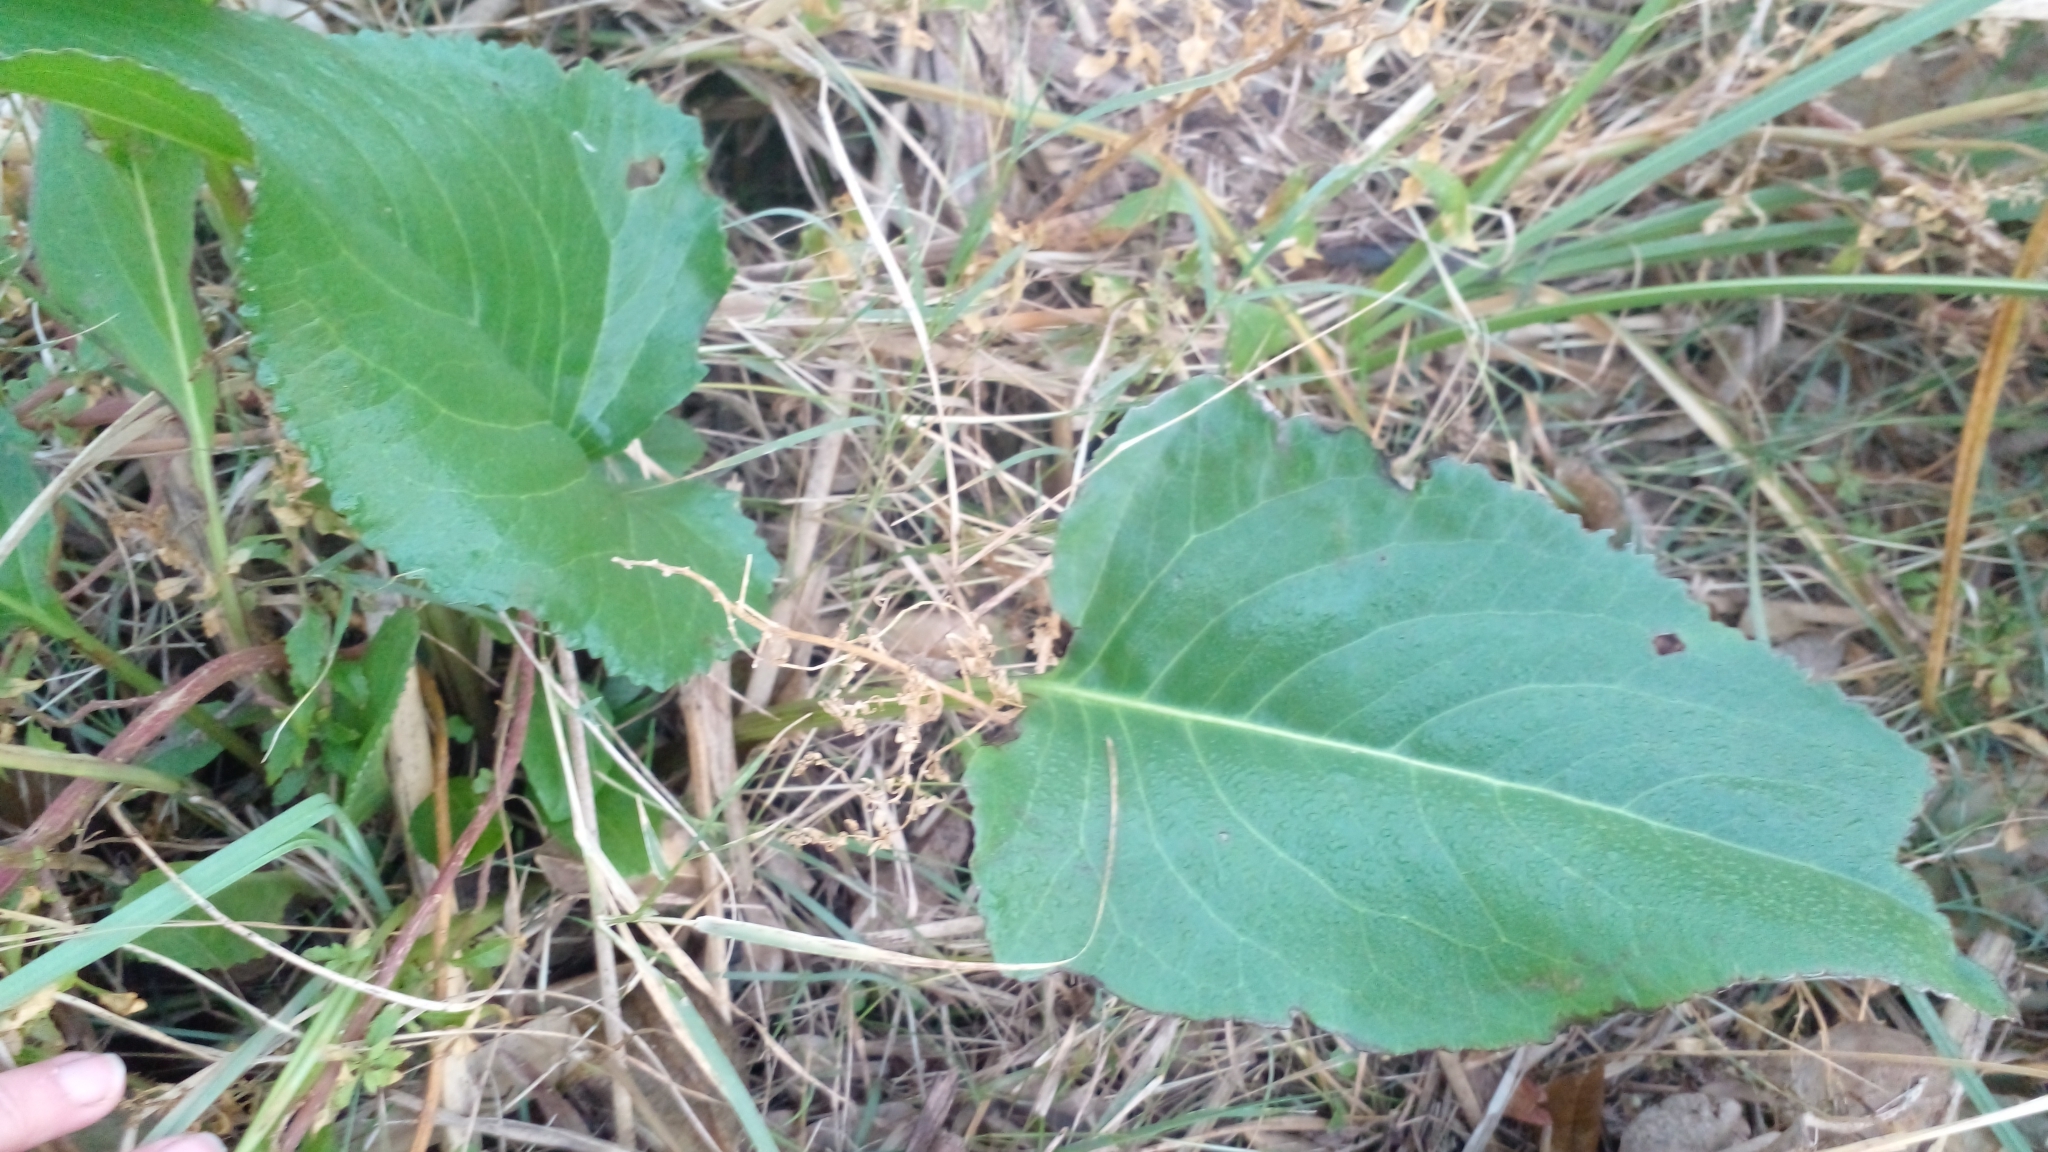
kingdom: Plantae
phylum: Tracheophyta
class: Magnoliopsida
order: Asterales
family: Asteraceae
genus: Senecio
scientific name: Senecio bonariensis
